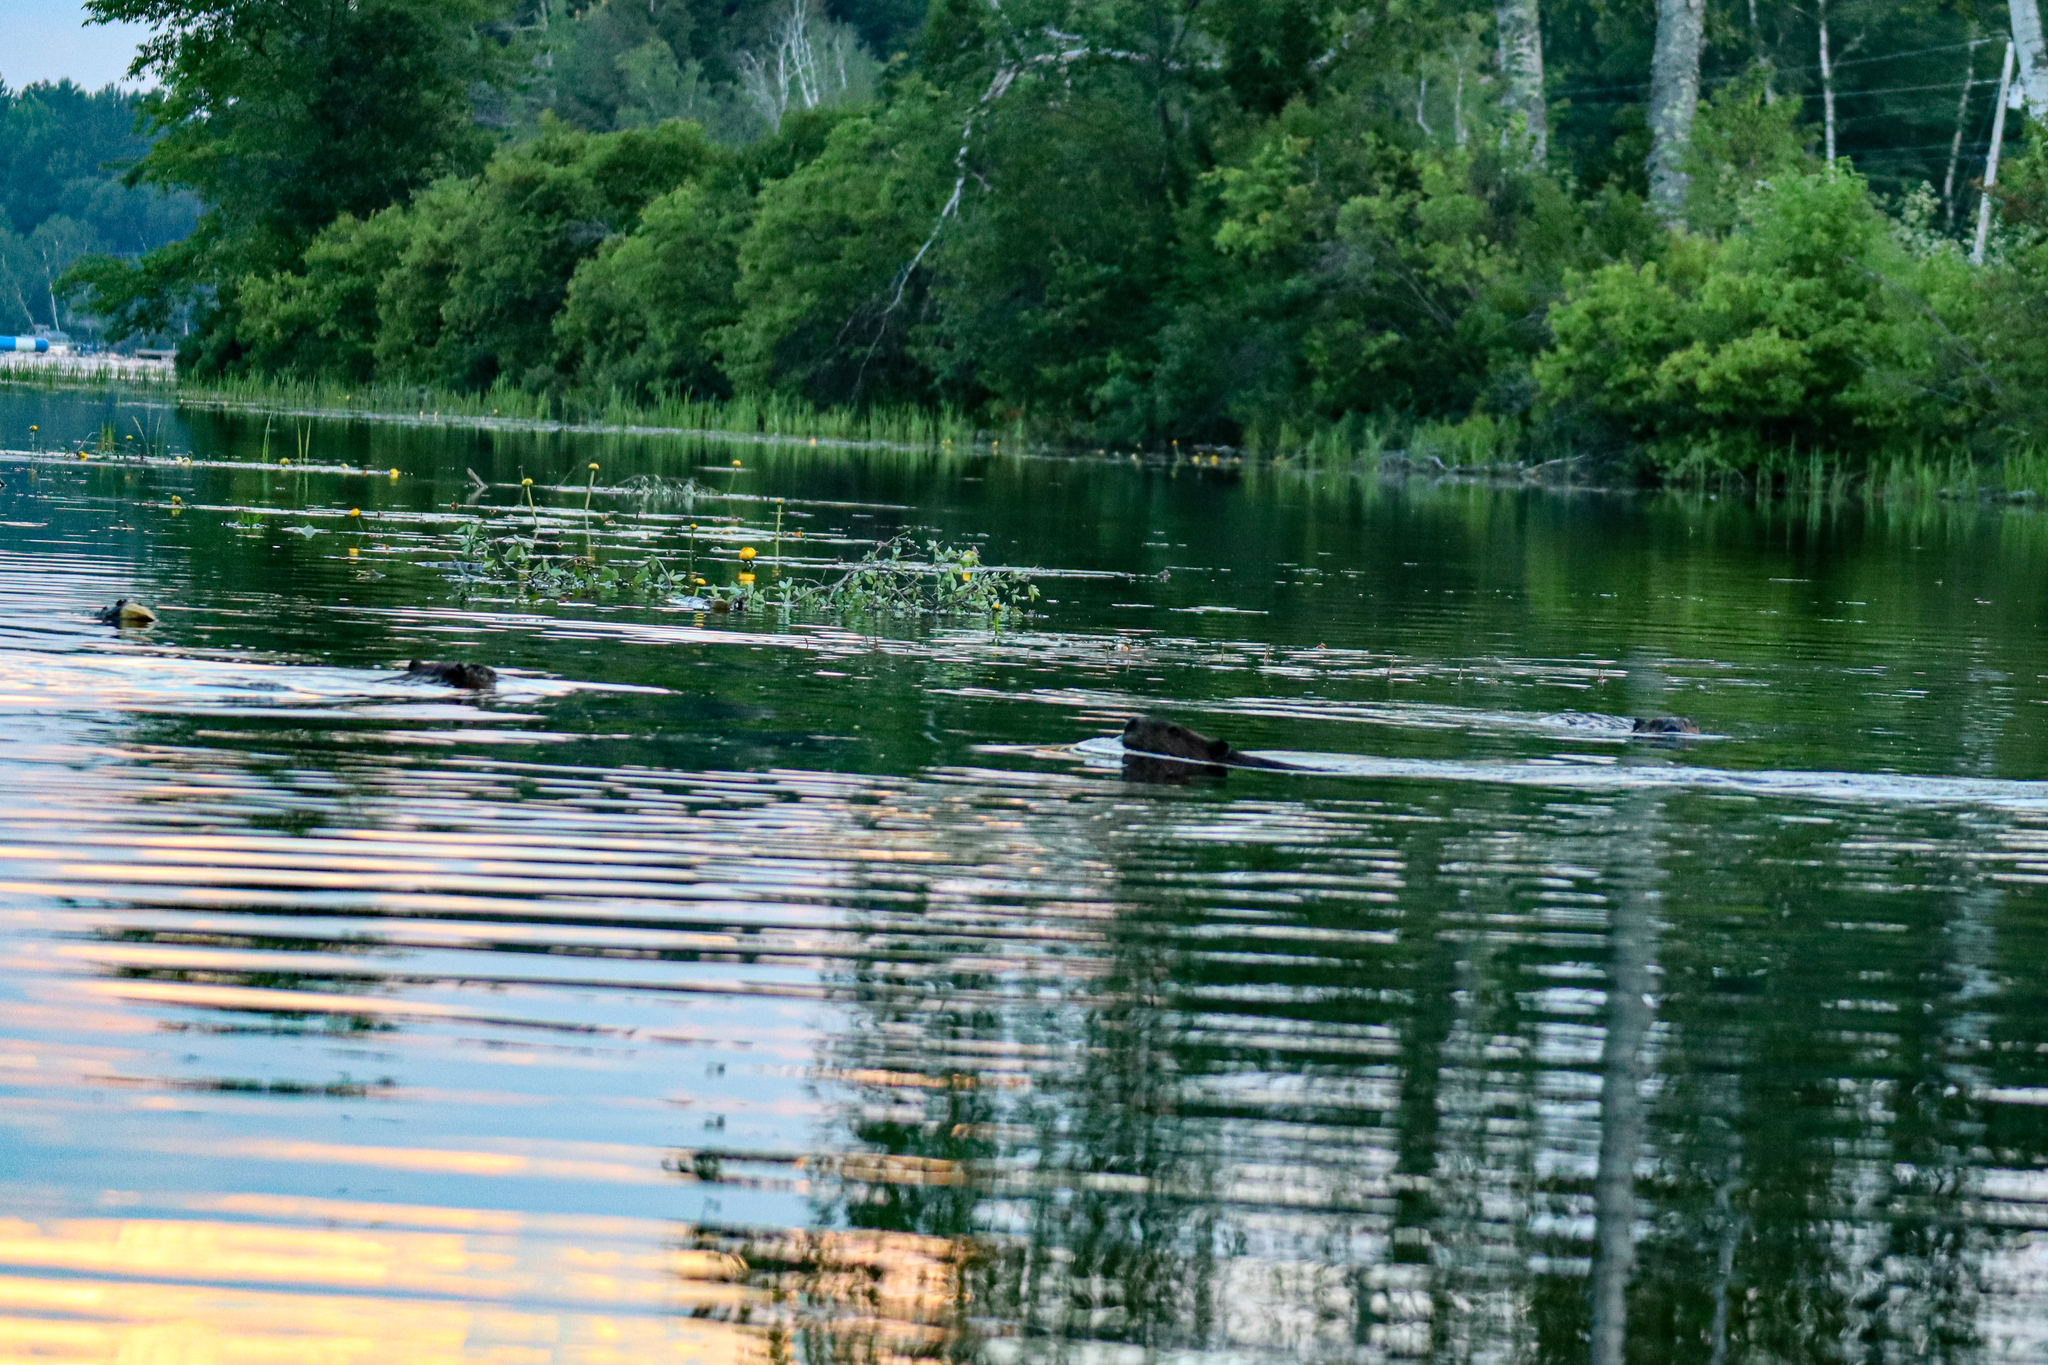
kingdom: Animalia
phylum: Chordata
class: Mammalia
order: Rodentia
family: Castoridae
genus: Castor
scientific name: Castor canadensis
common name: American beaver
